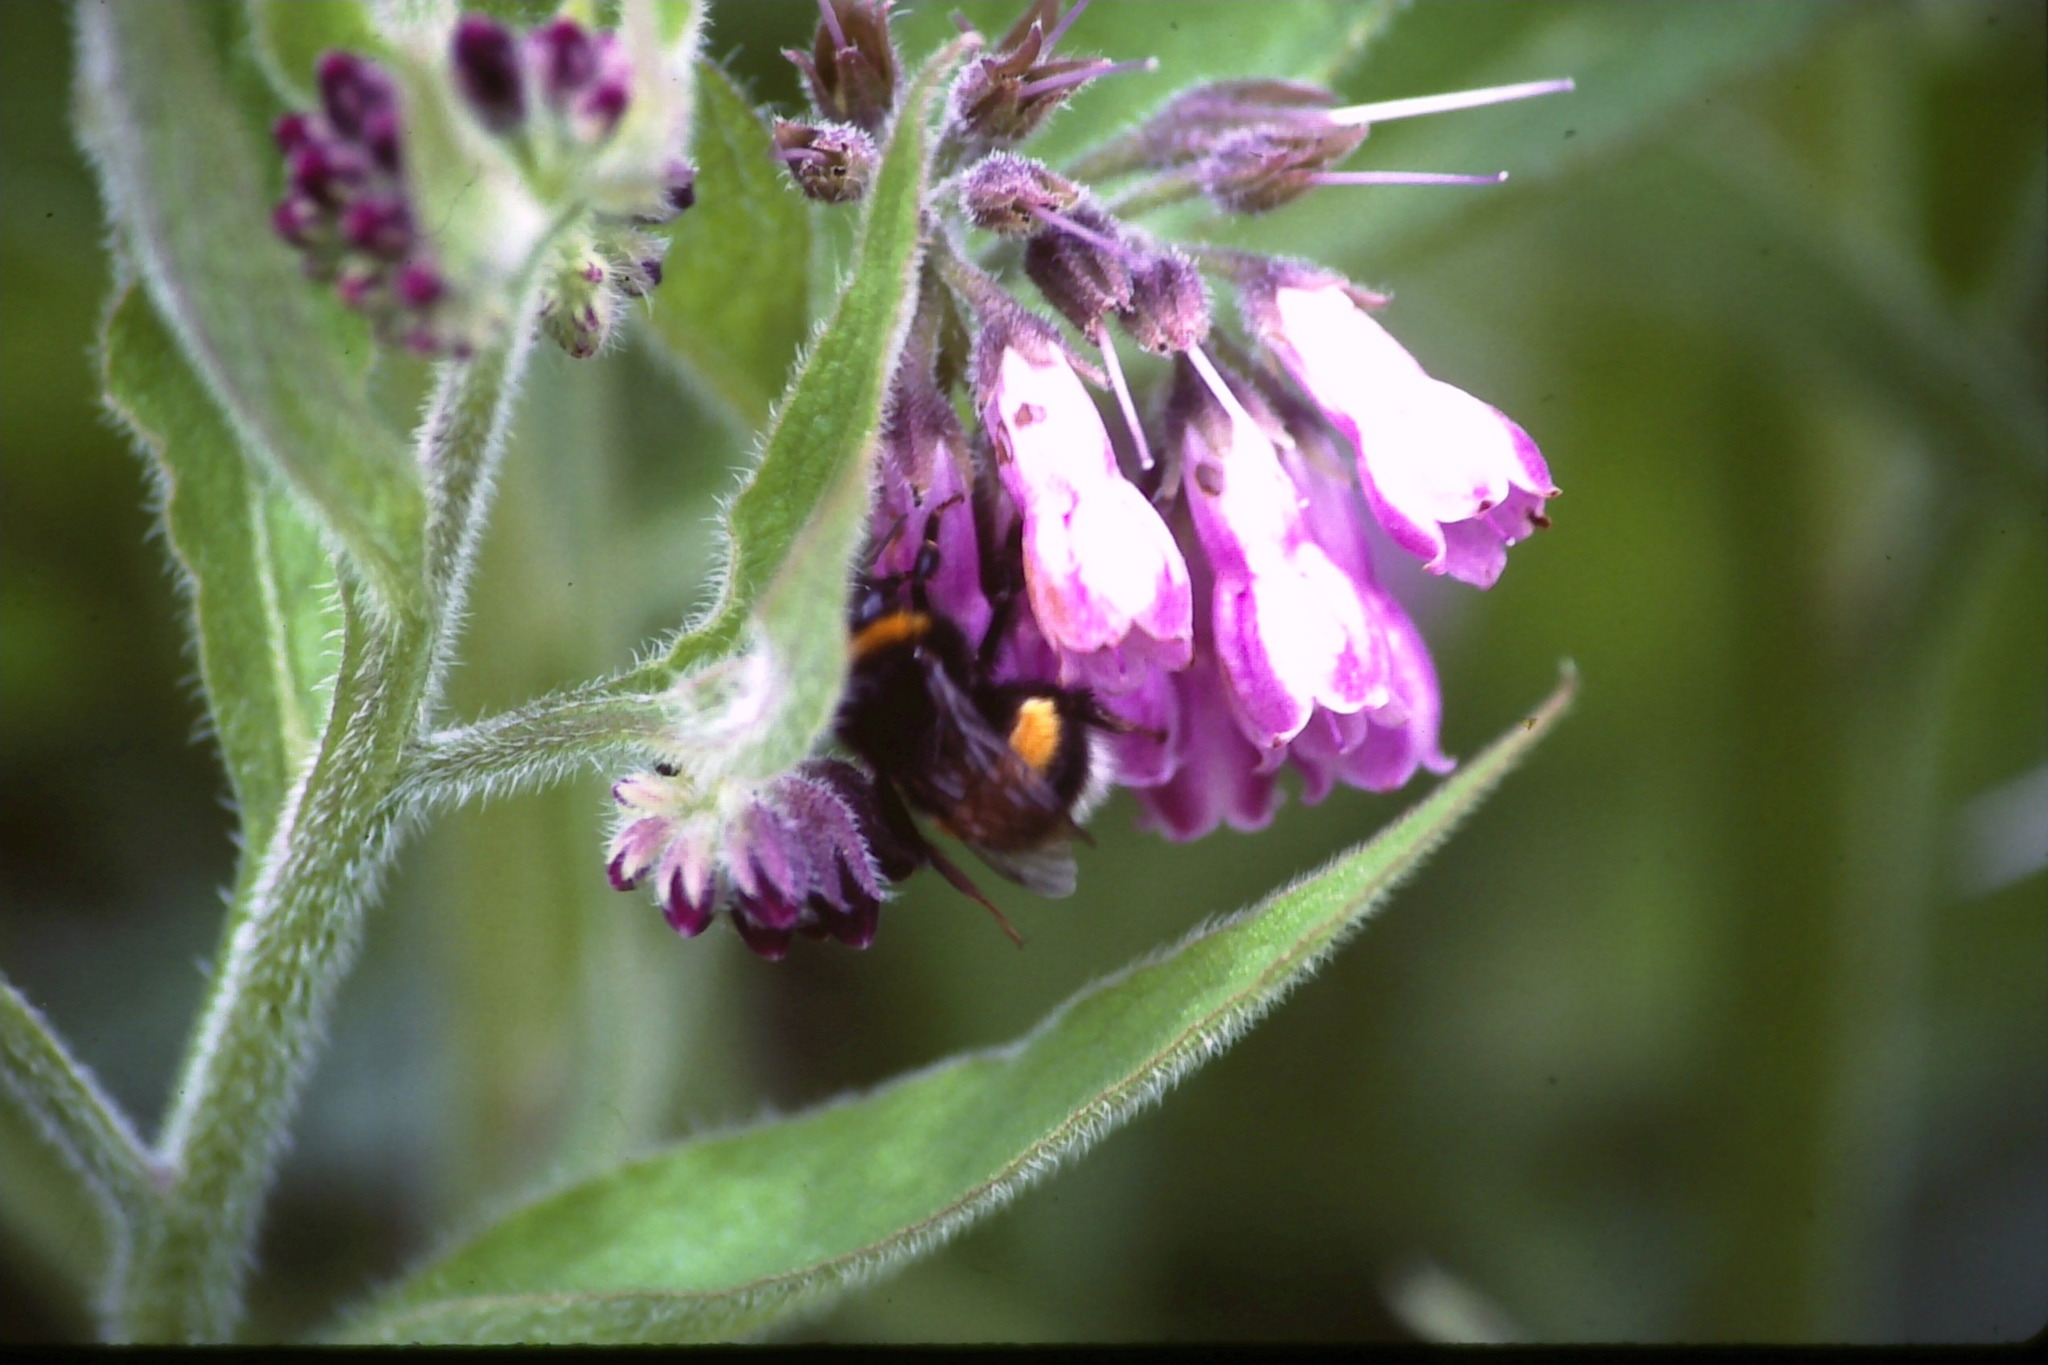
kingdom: Plantae
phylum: Tracheophyta
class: Magnoliopsida
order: Boraginales
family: Boraginaceae
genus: Symphytum
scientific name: Symphytum officinale
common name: Common comfrey
